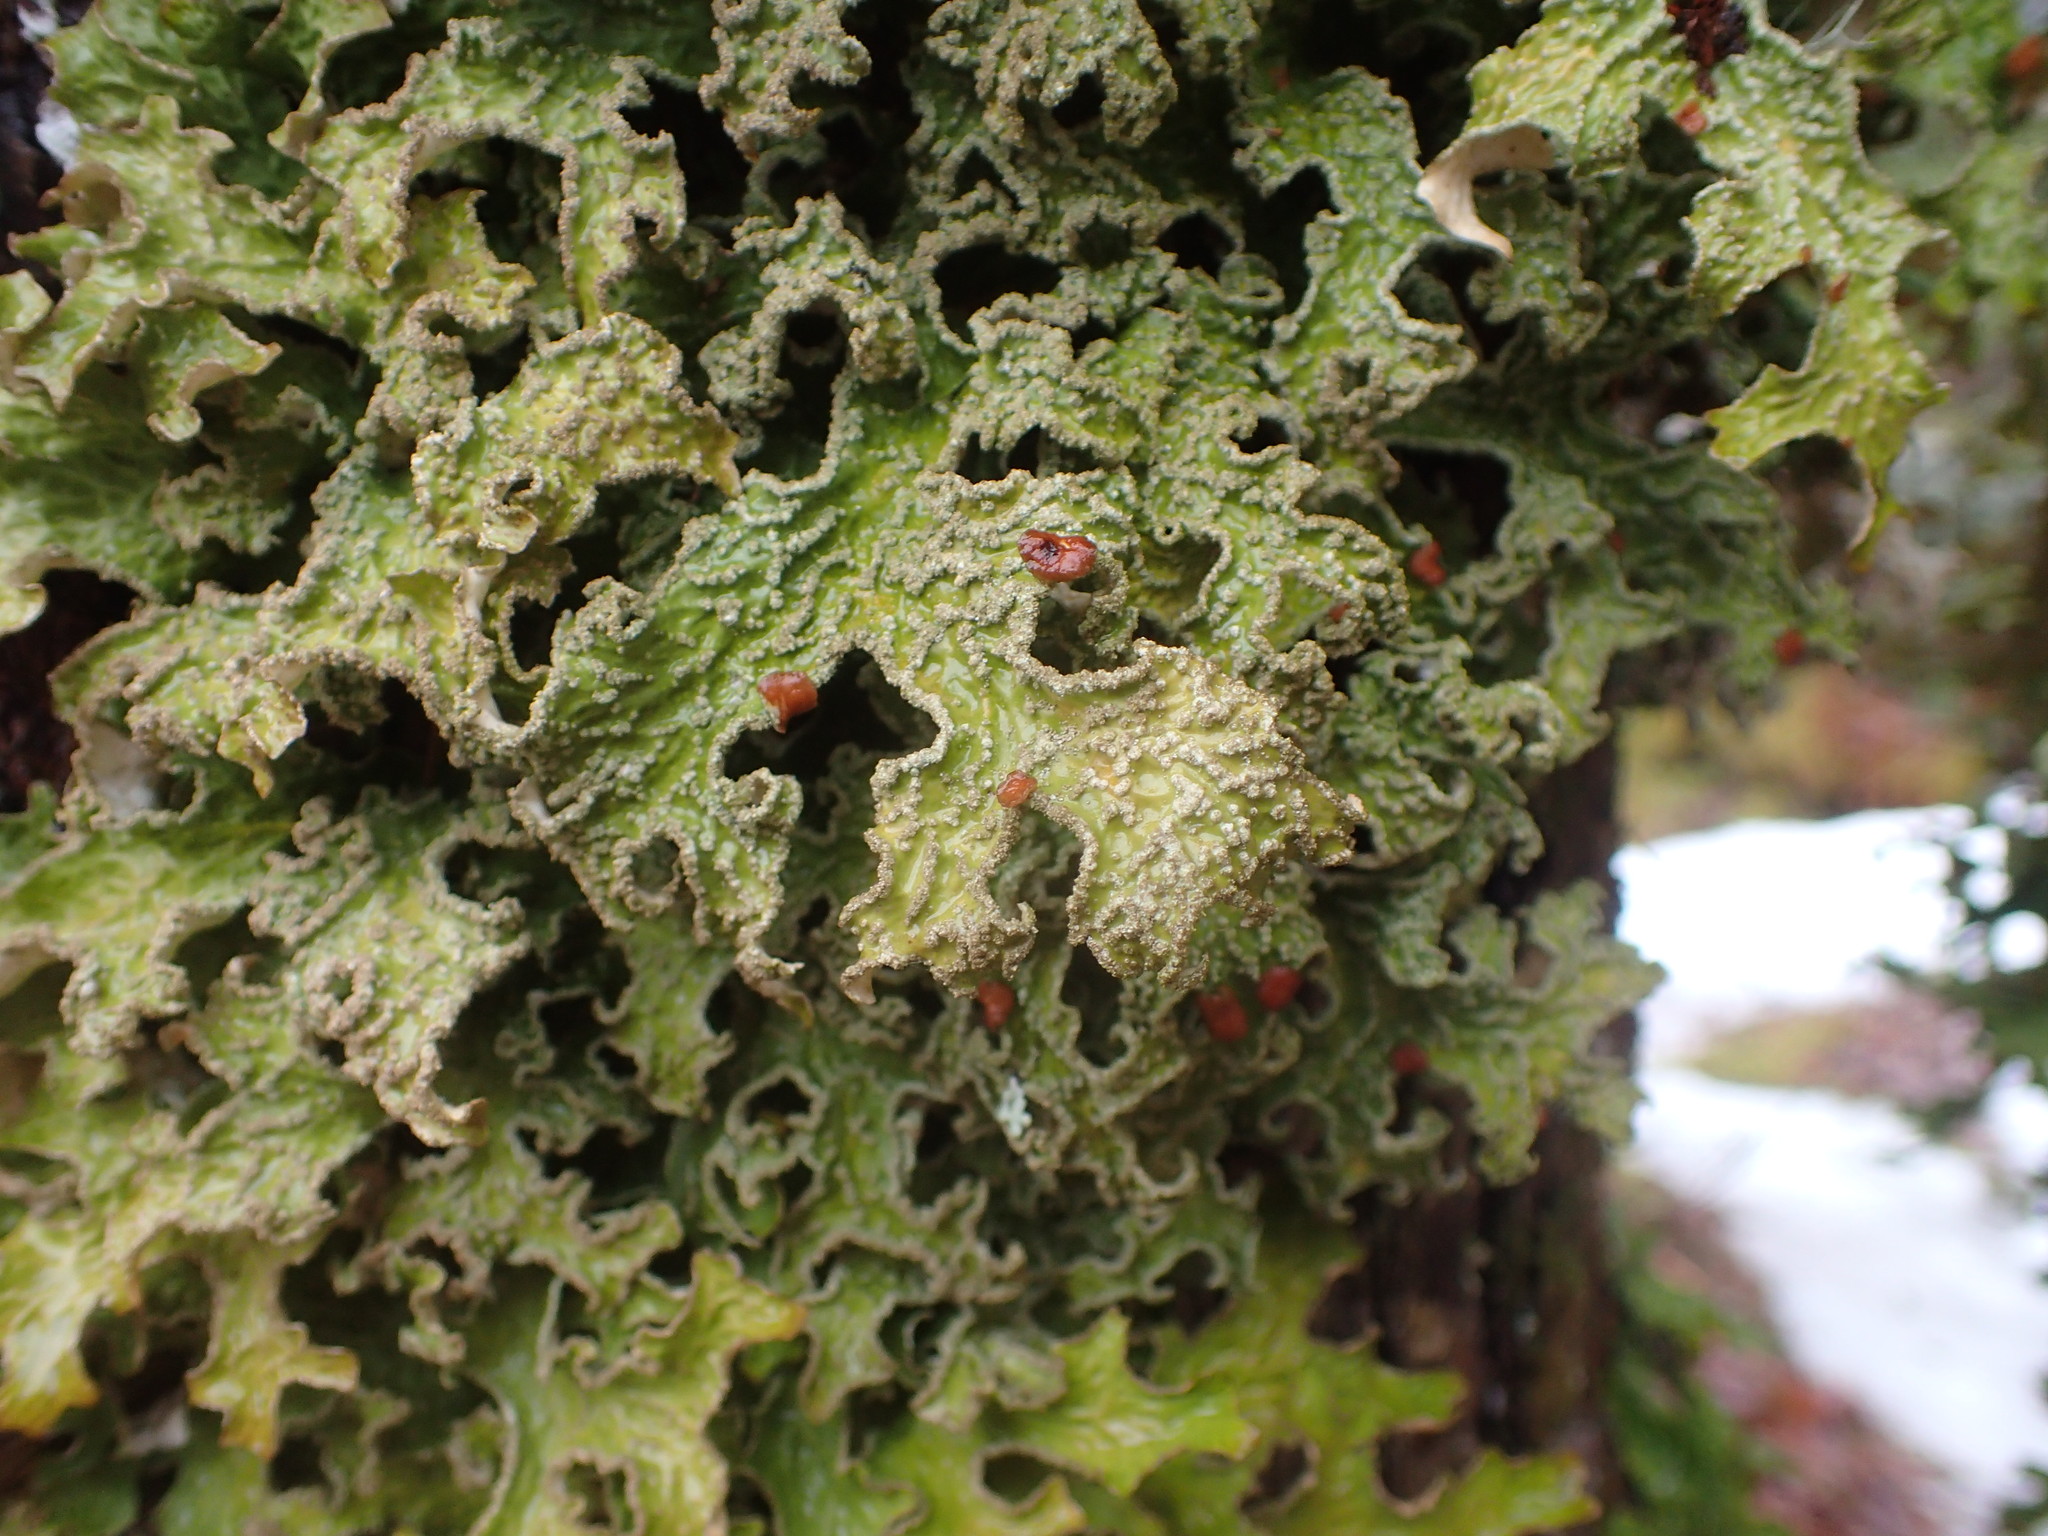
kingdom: Fungi
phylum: Ascomycota
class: Lecanoromycetes
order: Peltigerales
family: Lobariaceae
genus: Lobaria
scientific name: Lobaria pulmonaria
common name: Lungwort
